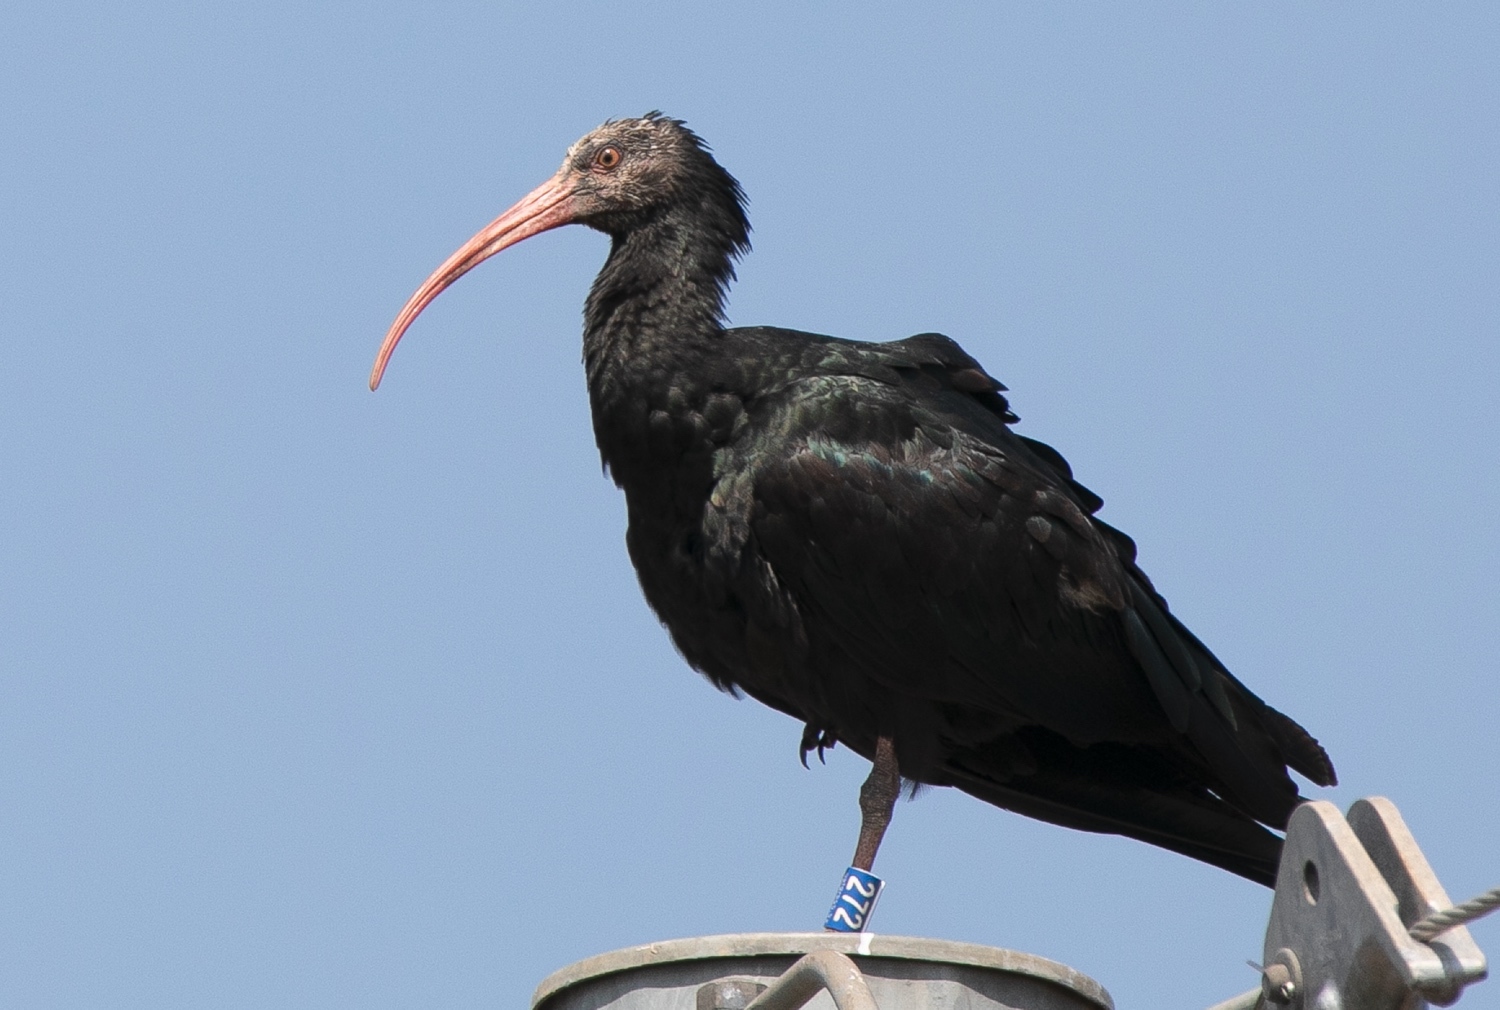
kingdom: Animalia
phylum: Chordata
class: Aves
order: Pelecaniformes
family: Threskiornithidae
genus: Geronticus
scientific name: Geronticus eremita
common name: Northern bald ibis
